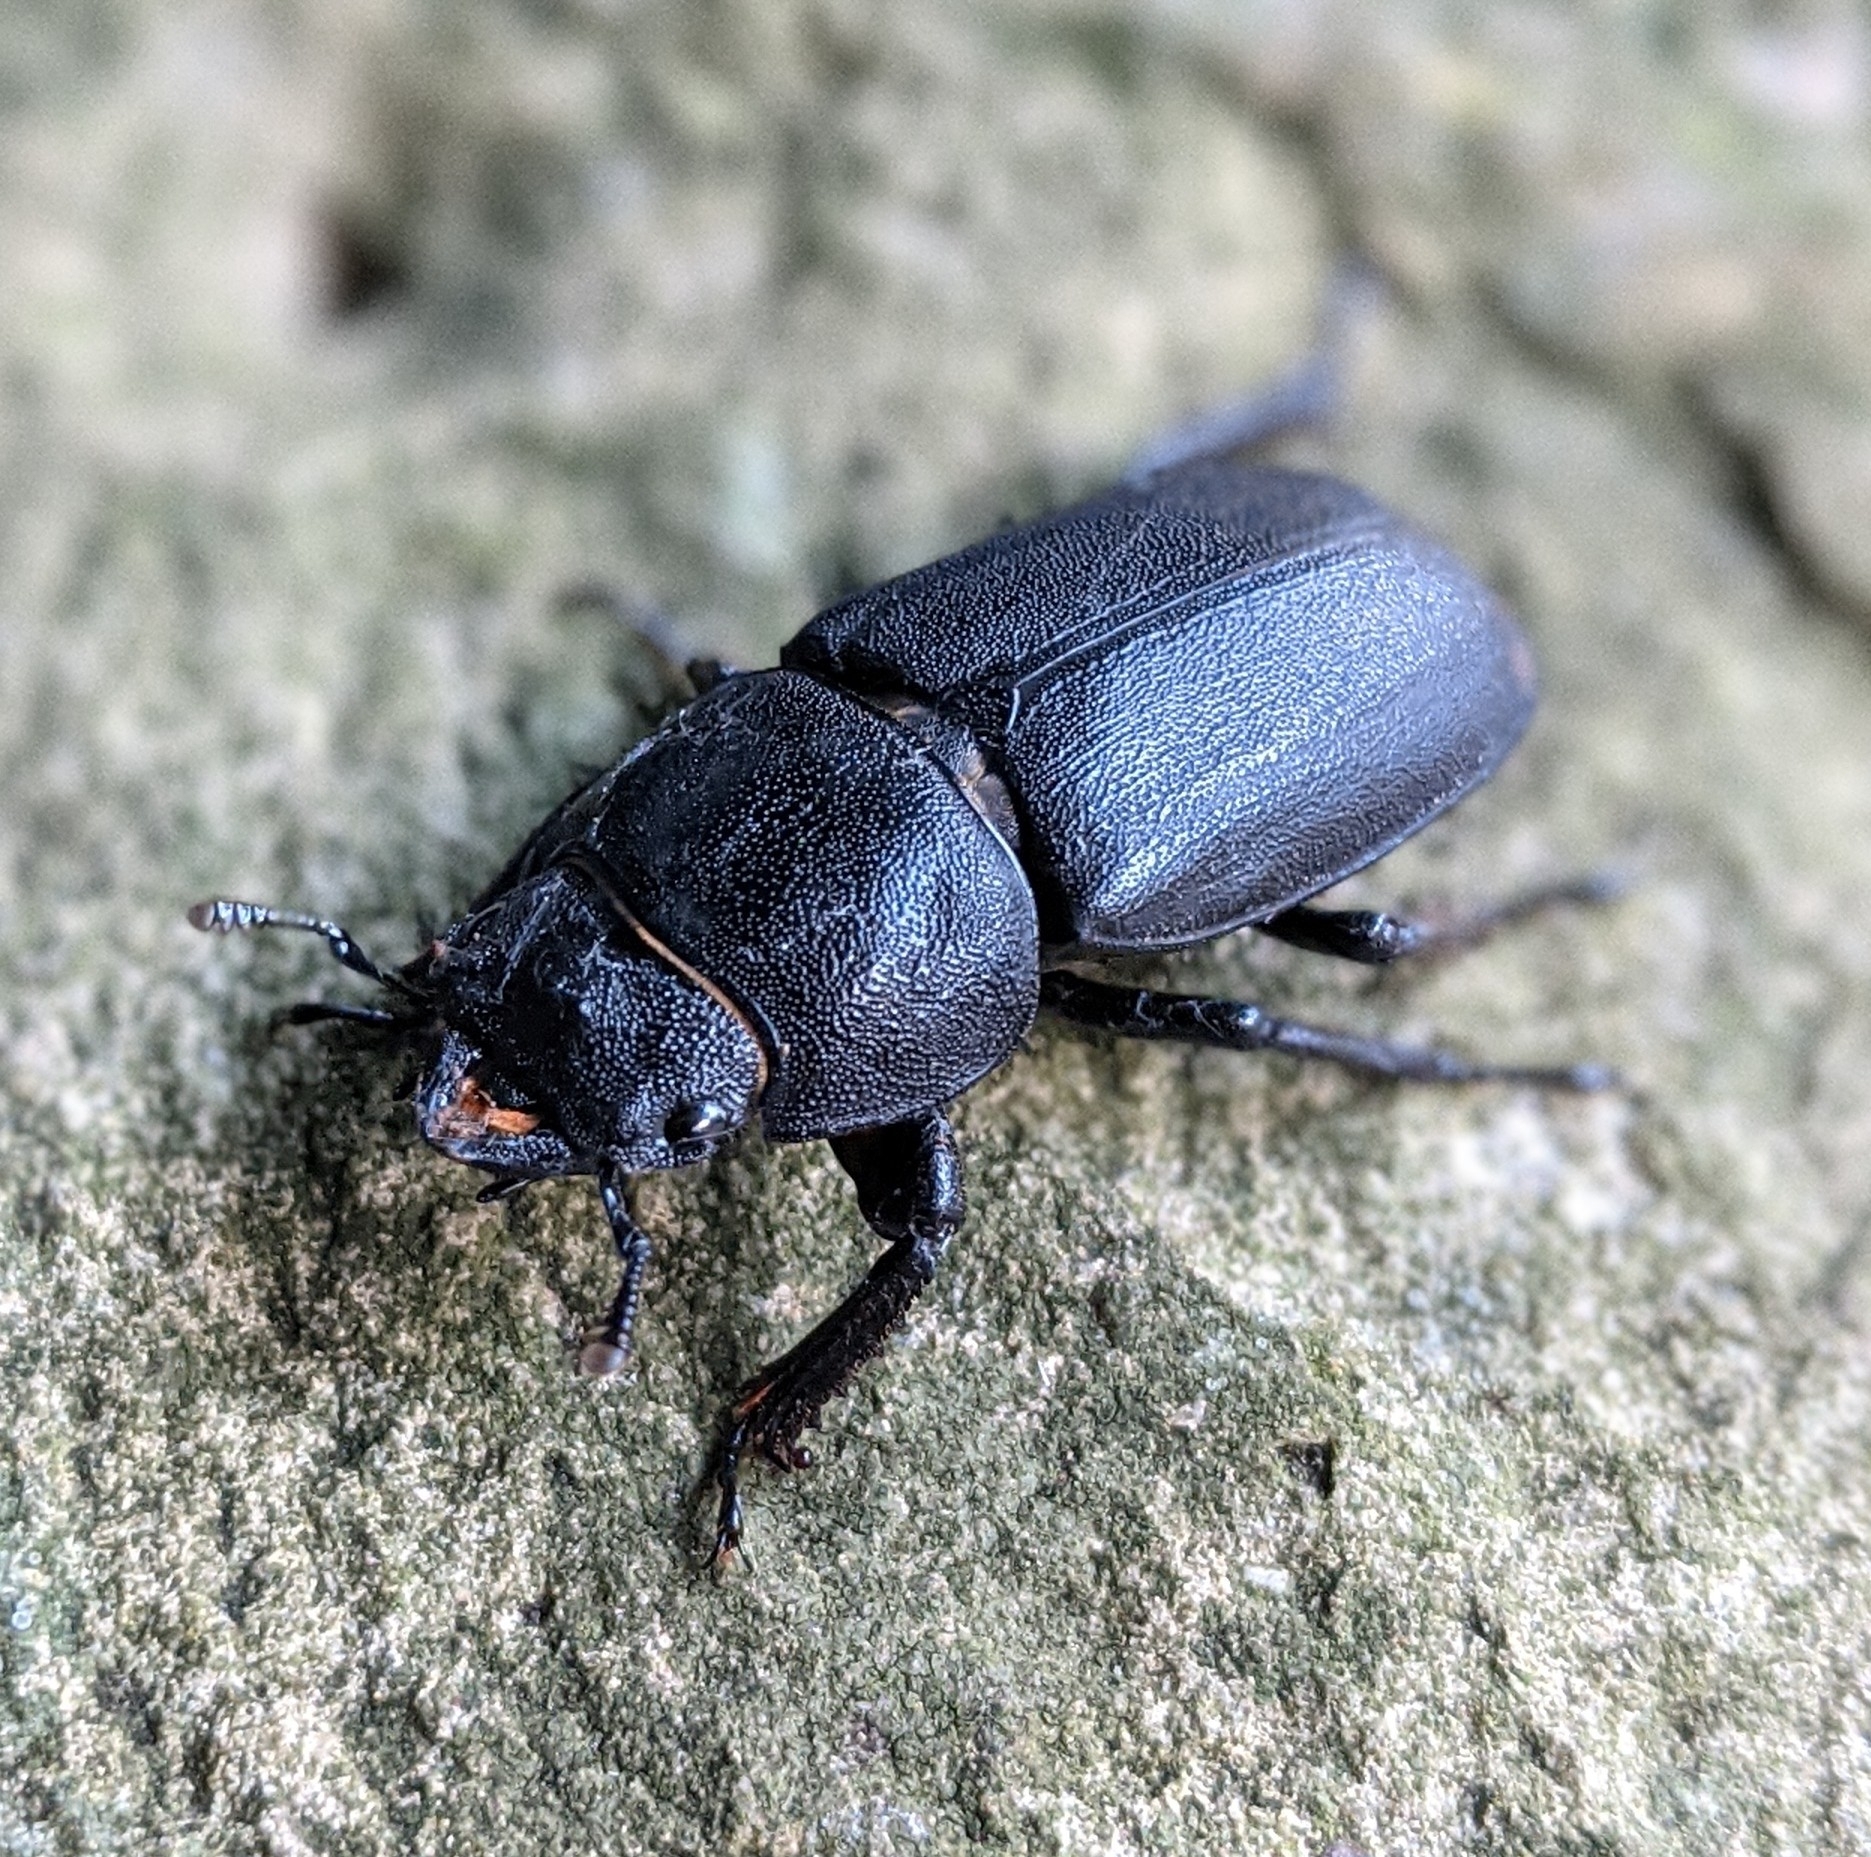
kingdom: Animalia
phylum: Arthropoda
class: Insecta
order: Coleoptera
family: Lucanidae
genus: Dorcus
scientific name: Dorcus parallelipipedus
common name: Lesser stag beetle
